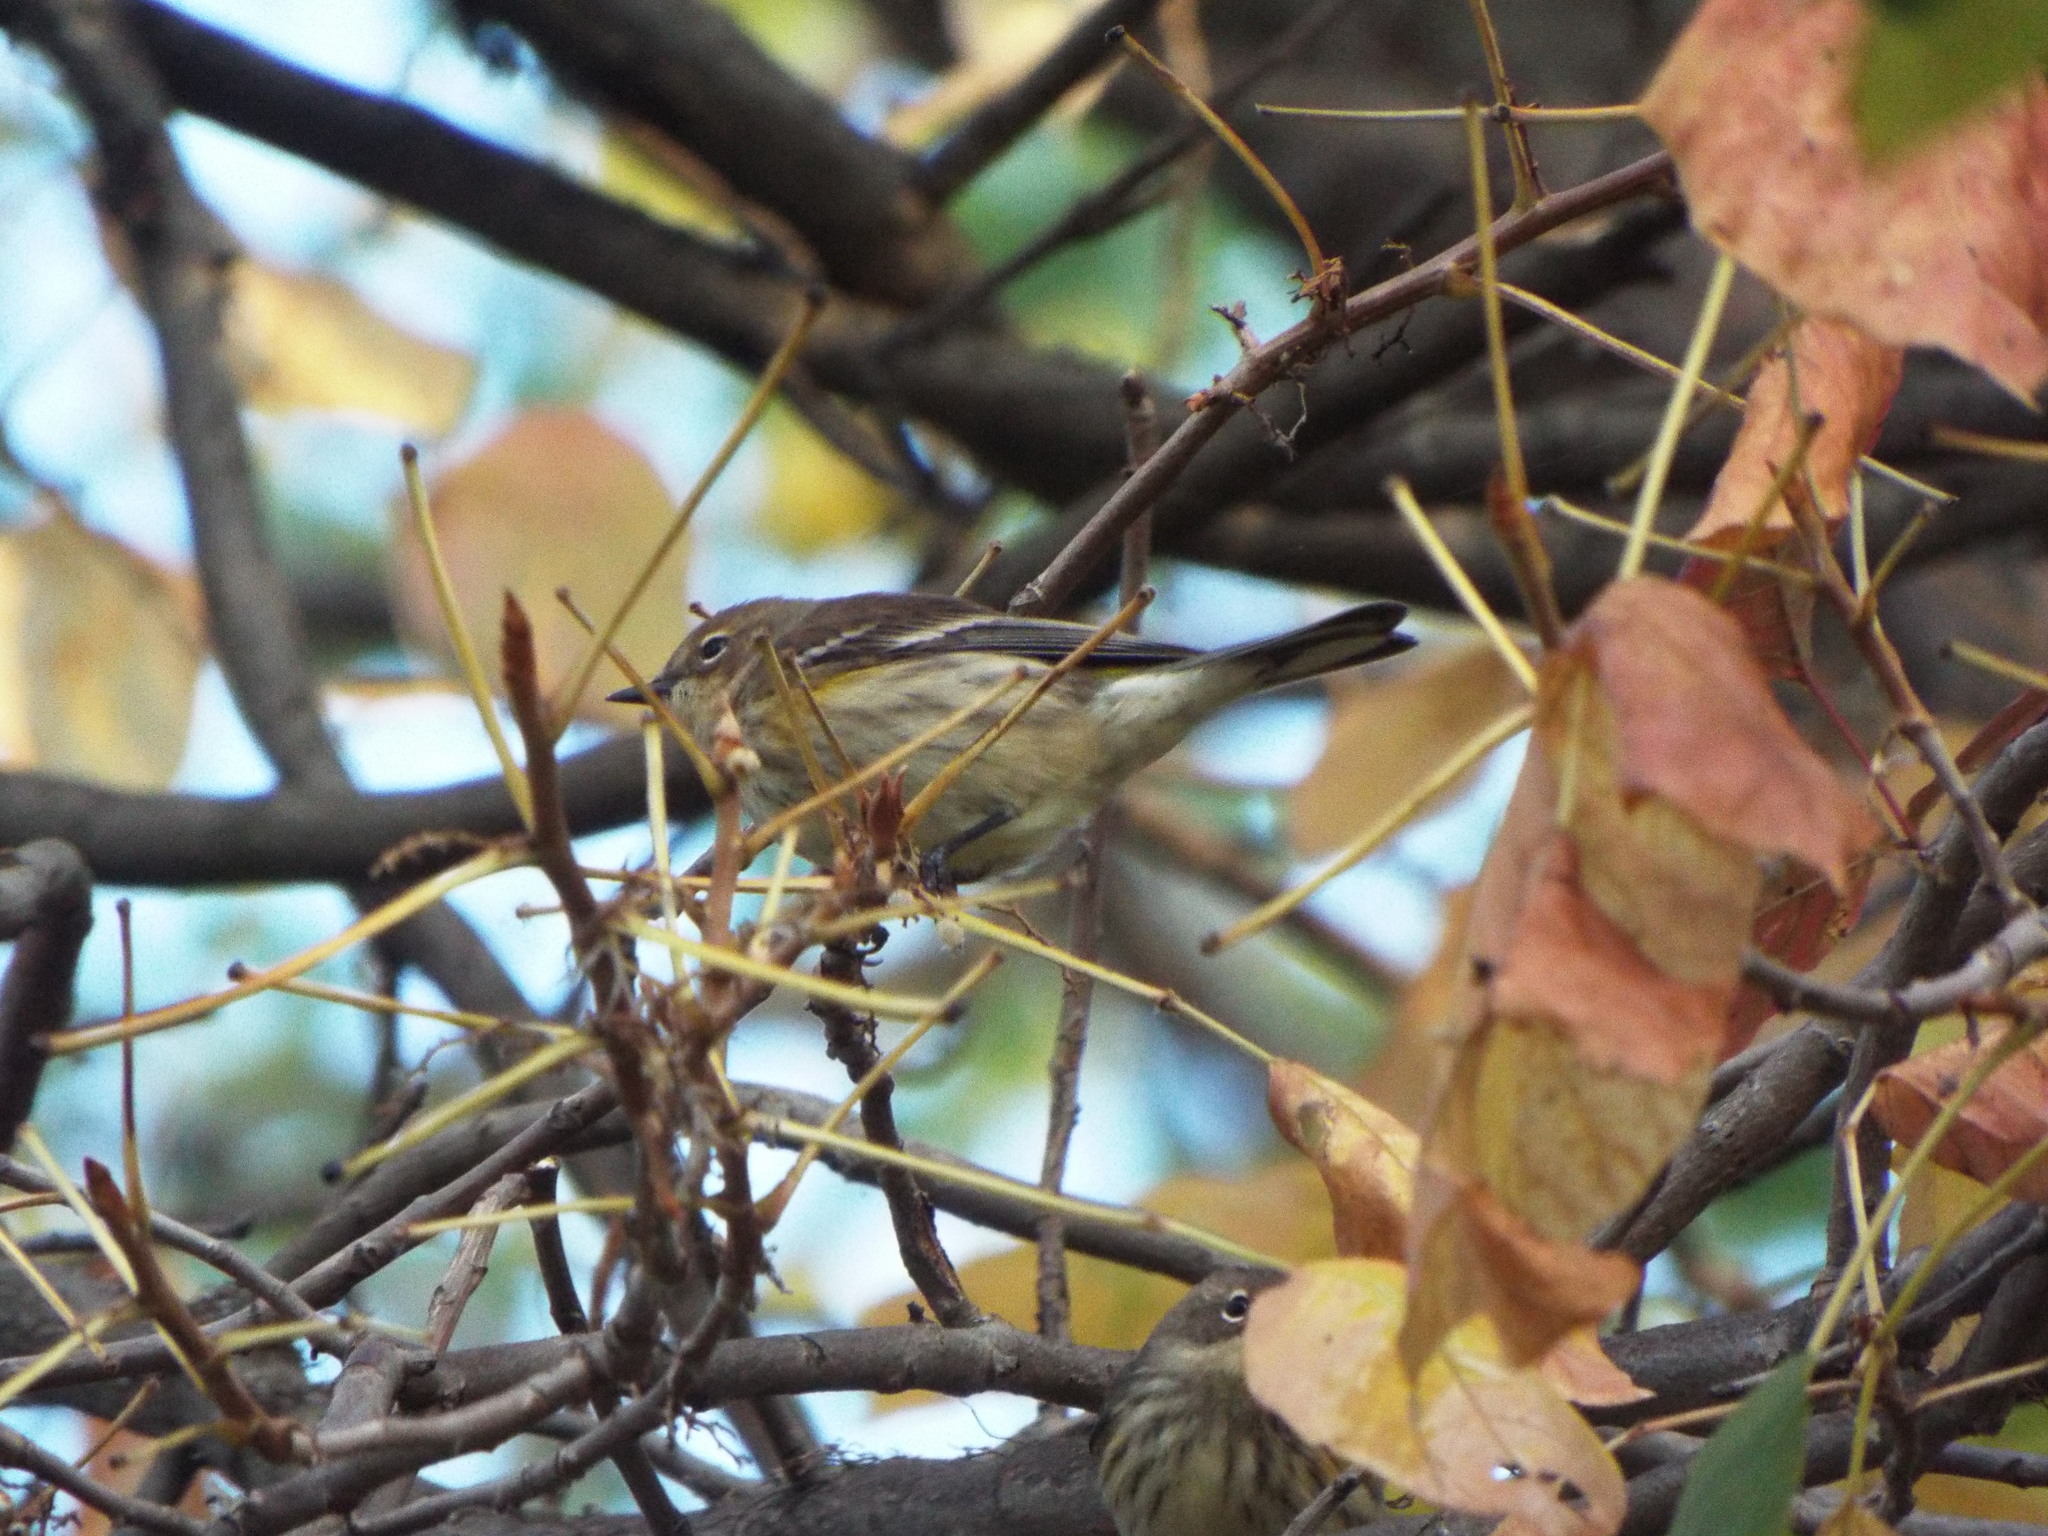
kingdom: Animalia
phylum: Chordata
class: Aves
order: Passeriformes
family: Parulidae
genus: Setophaga
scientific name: Setophaga coronata
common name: Myrtle warbler
